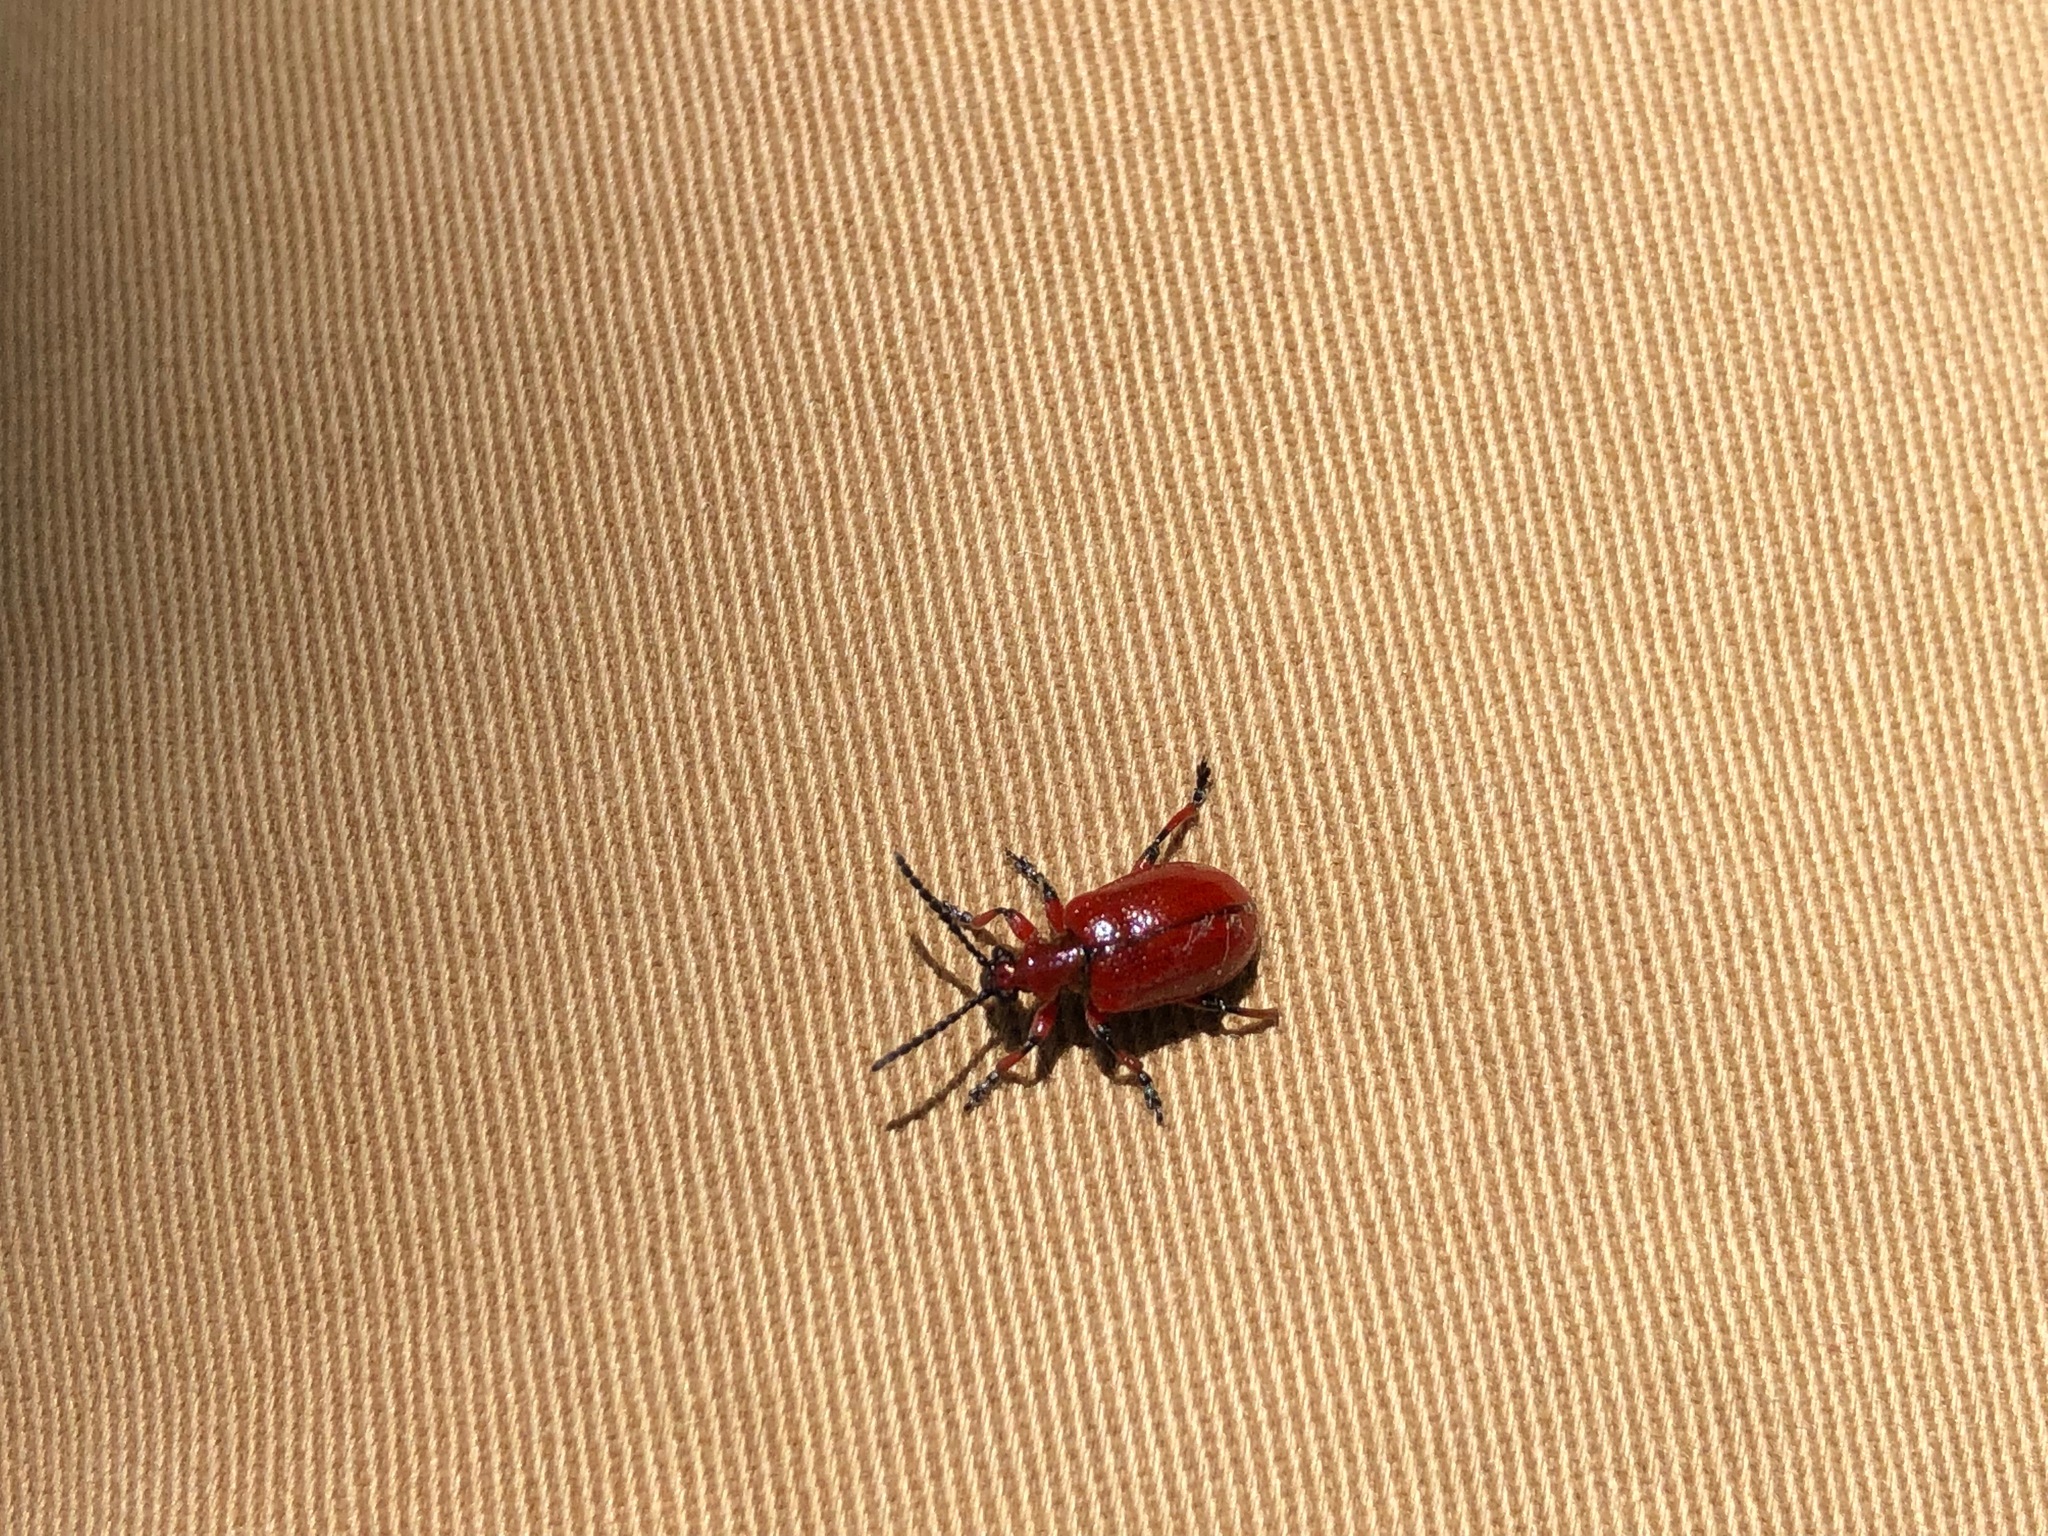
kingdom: Animalia
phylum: Arthropoda
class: Insecta
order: Coleoptera
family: Chrysomelidae
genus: Lilioceris
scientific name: Lilioceris merdigera
